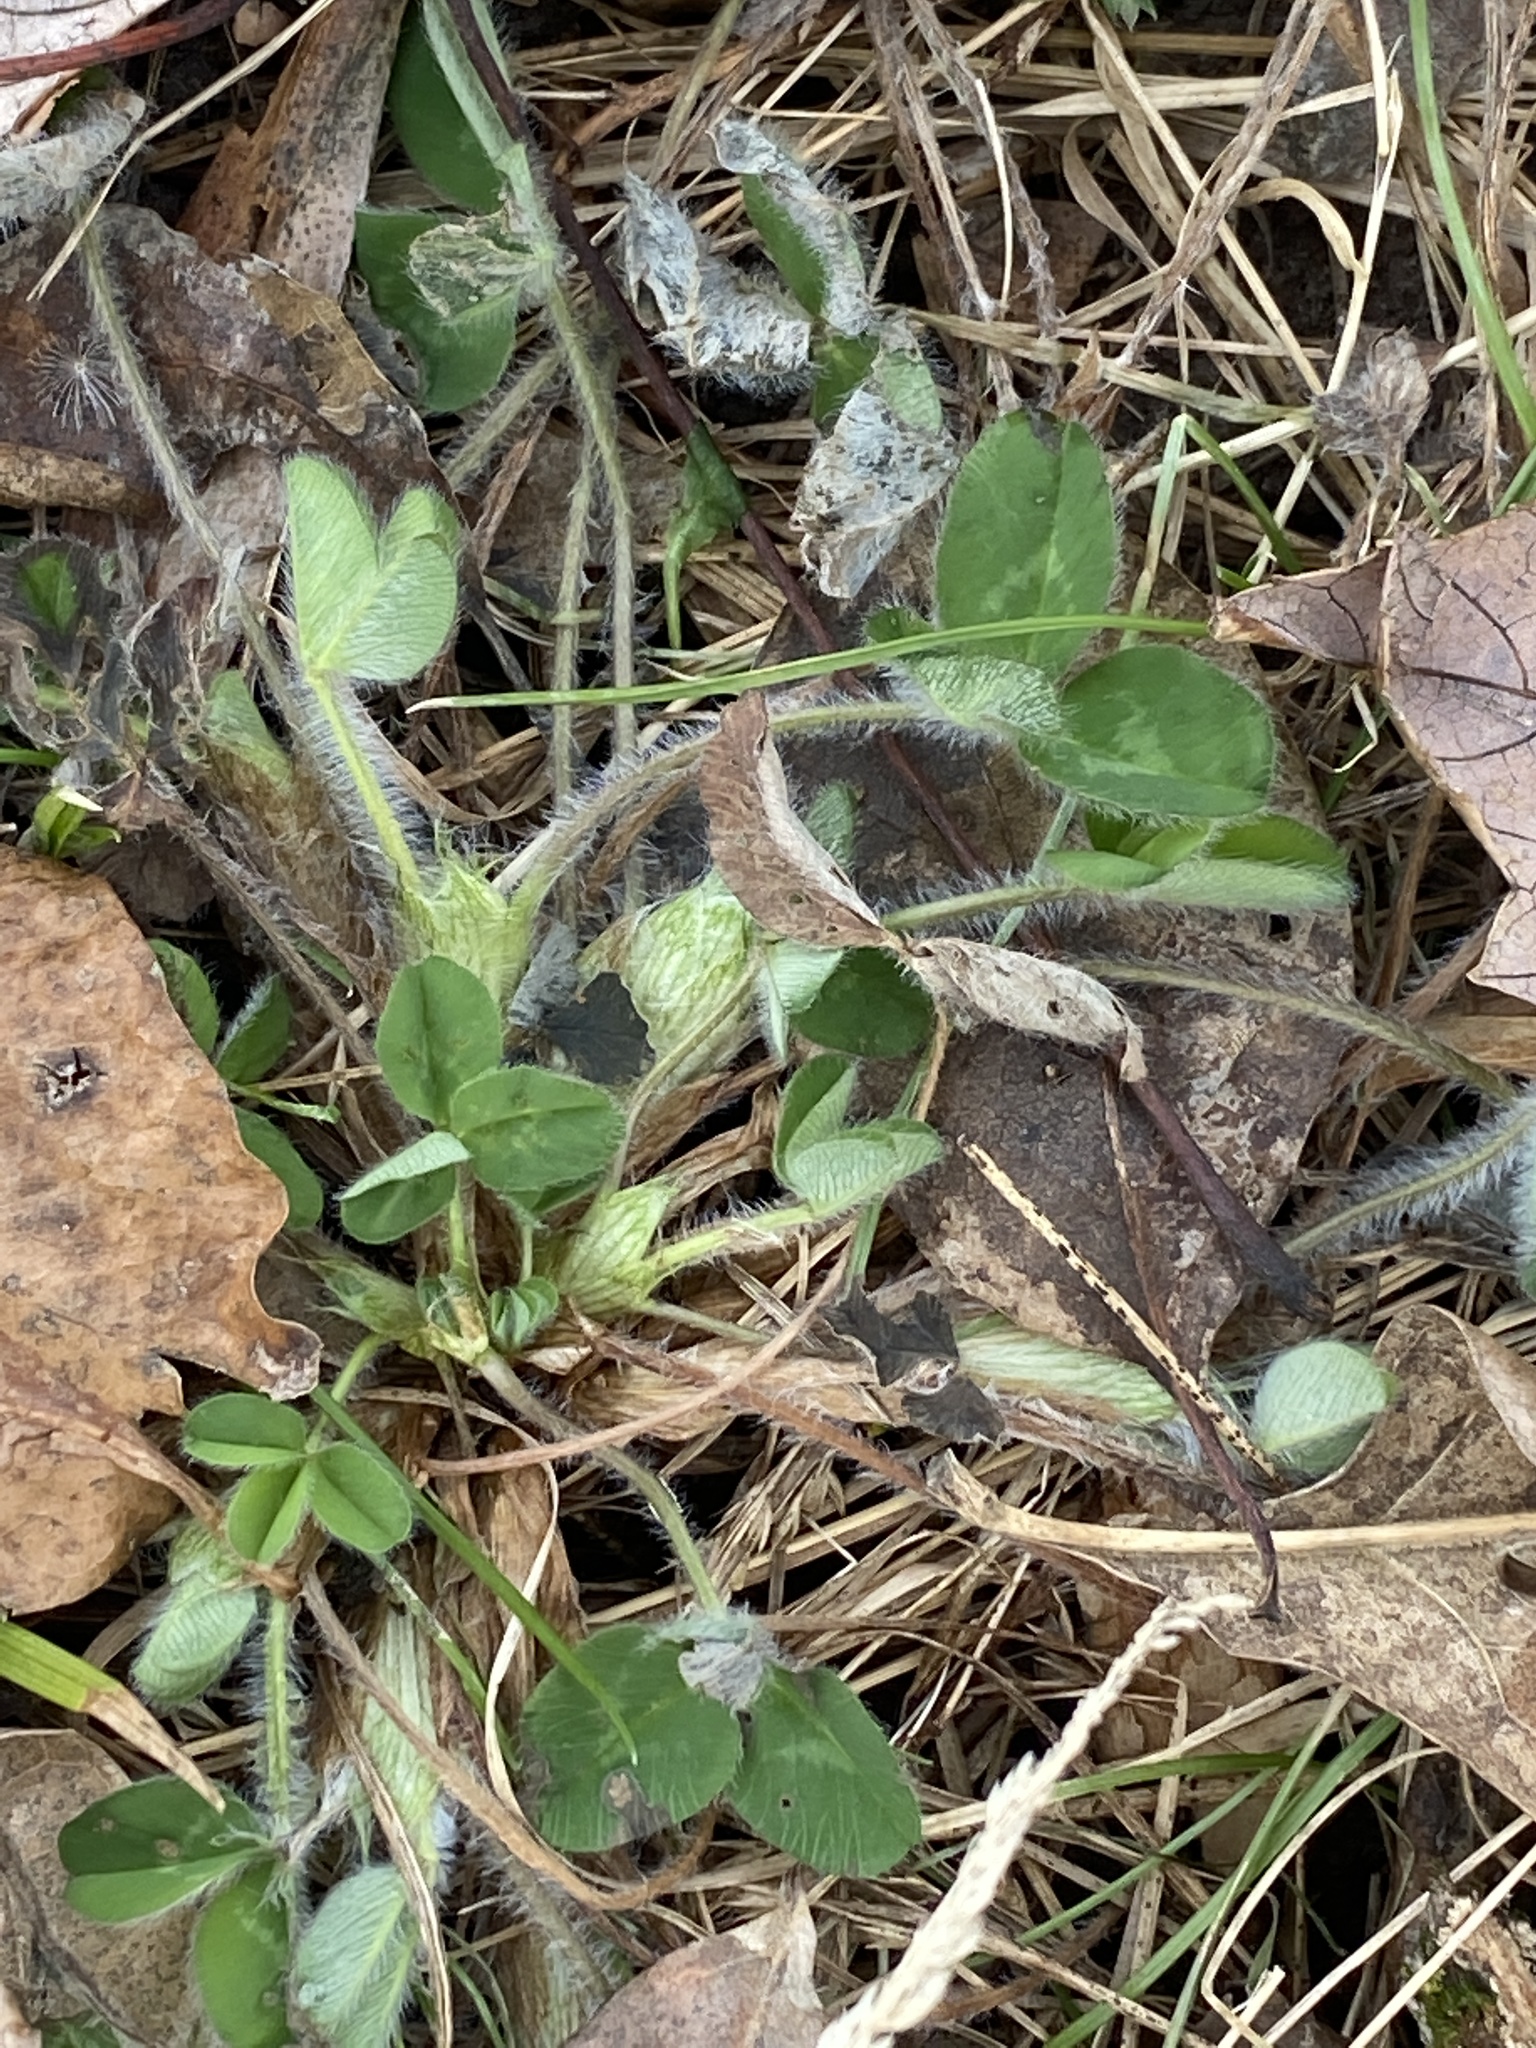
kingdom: Plantae
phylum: Tracheophyta
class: Magnoliopsida
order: Fabales
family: Fabaceae
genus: Trifolium
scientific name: Trifolium pratense
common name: Red clover
